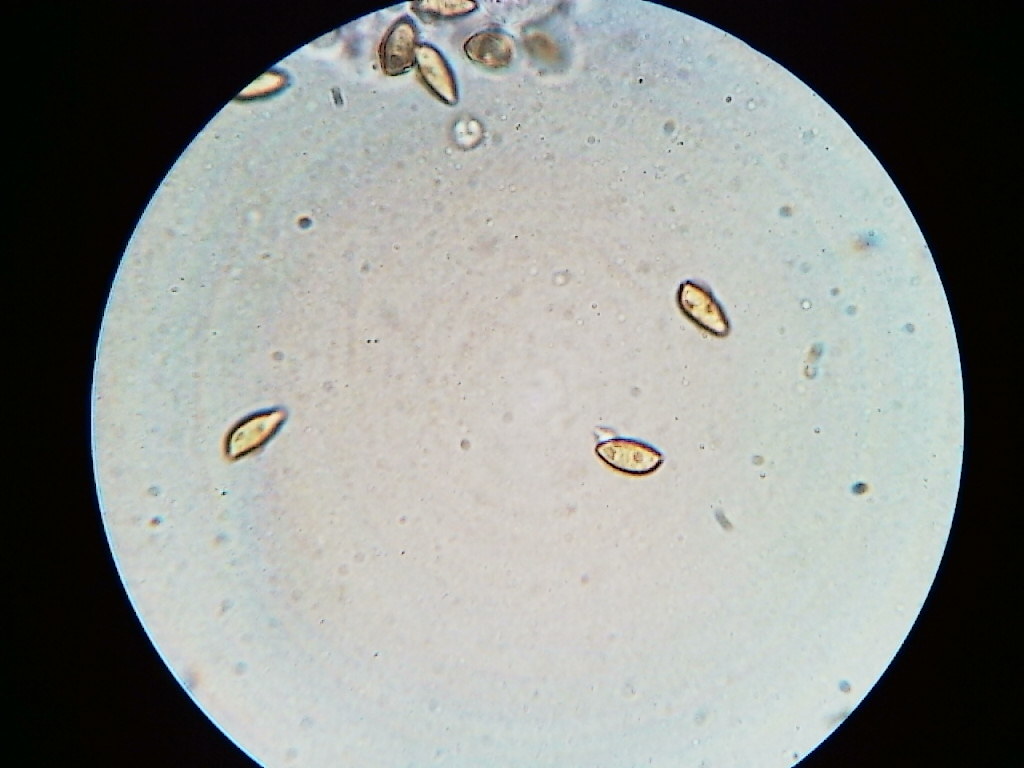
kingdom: Fungi
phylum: Basidiomycota
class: Agaricomycetes
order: Agaricales
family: Tubariaceae
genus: Phaeomarasmius
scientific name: Phaeomarasmius borealis
